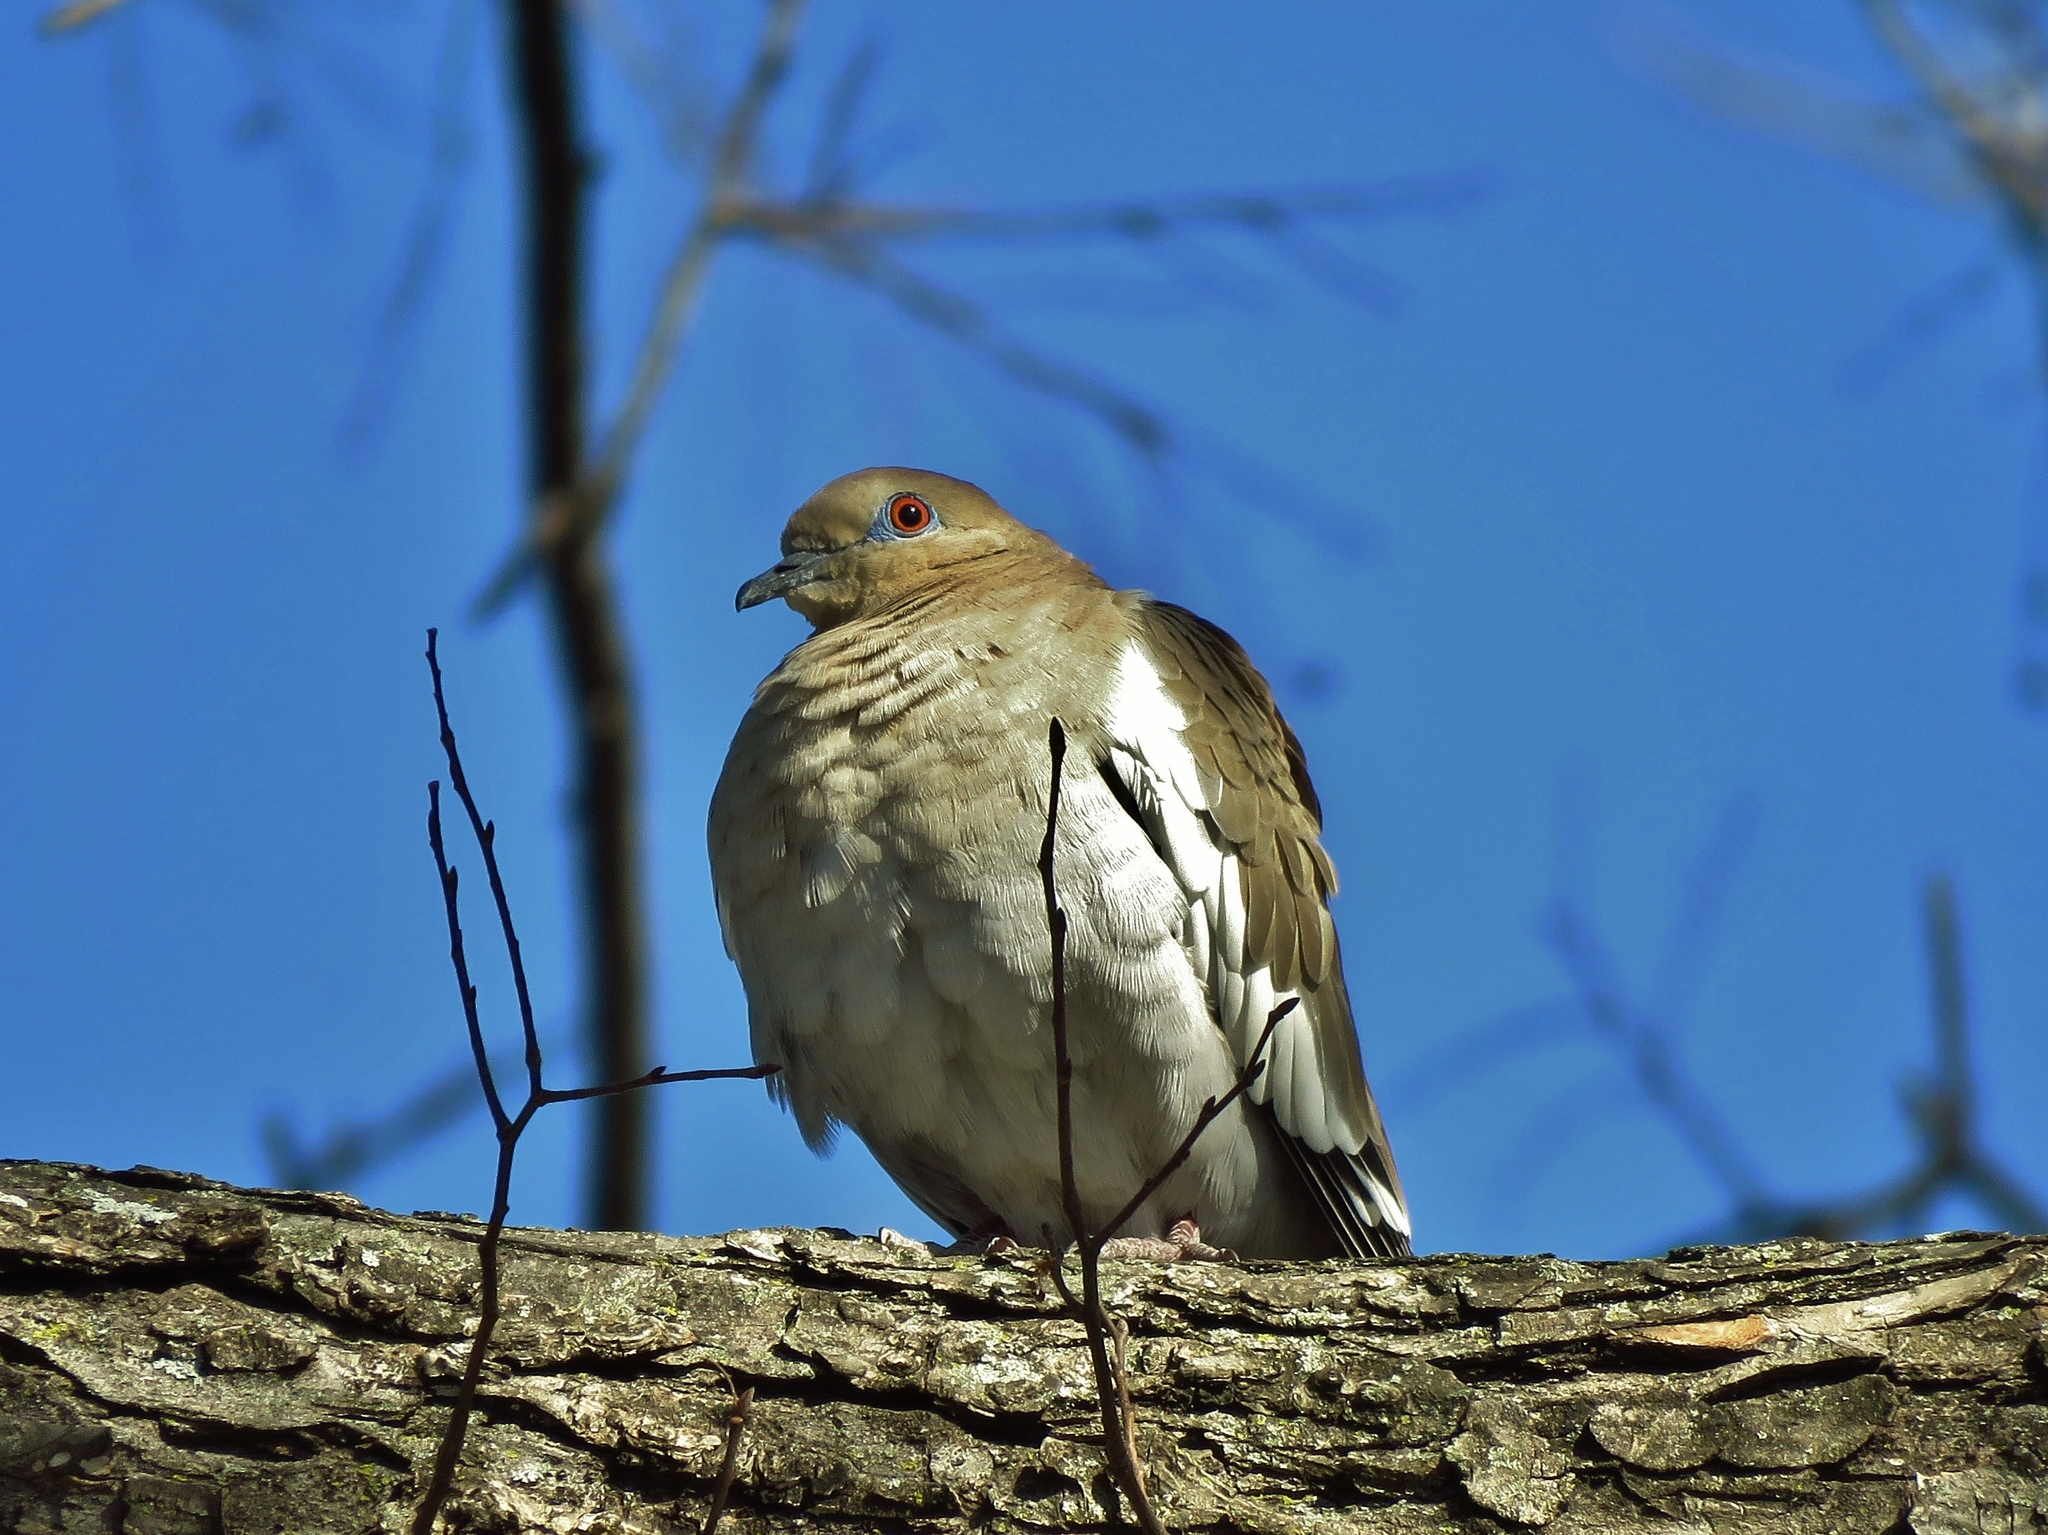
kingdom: Animalia
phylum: Chordata
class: Aves
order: Columbiformes
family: Columbidae
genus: Zenaida
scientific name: Zenaida asiatica
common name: White-winged dove
